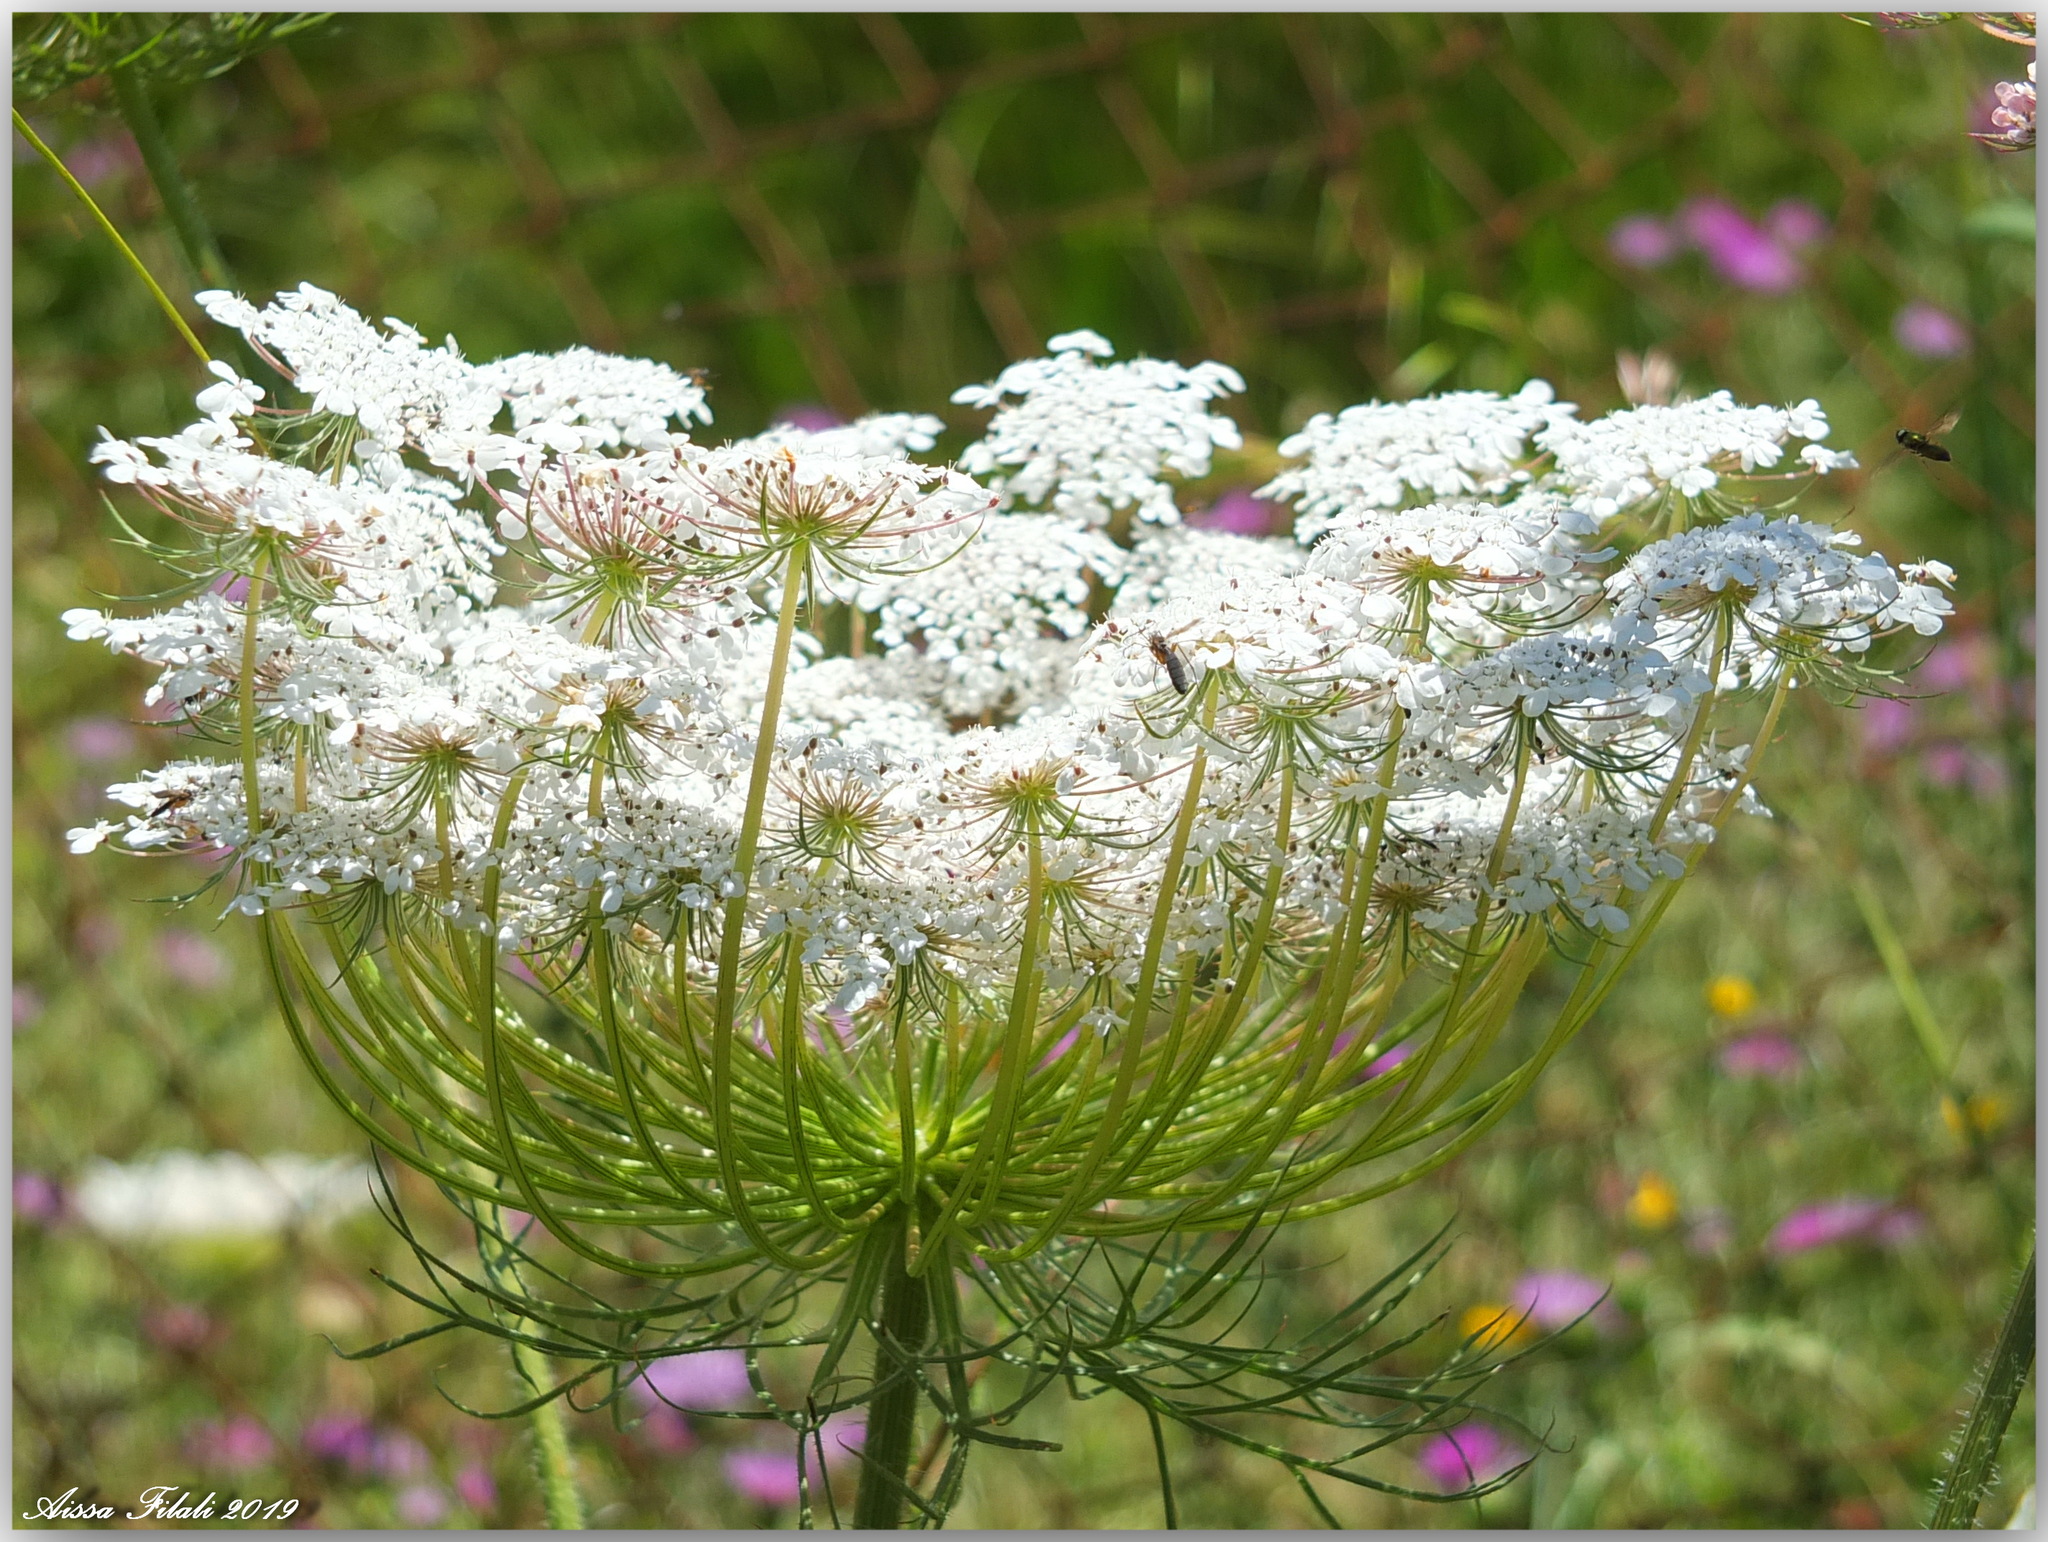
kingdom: Plantae
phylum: Tracheophyta
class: Magnoliopsida
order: Apiales
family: Apiaceae
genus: Daucus
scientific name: Daucus carota
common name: Wild carrot
